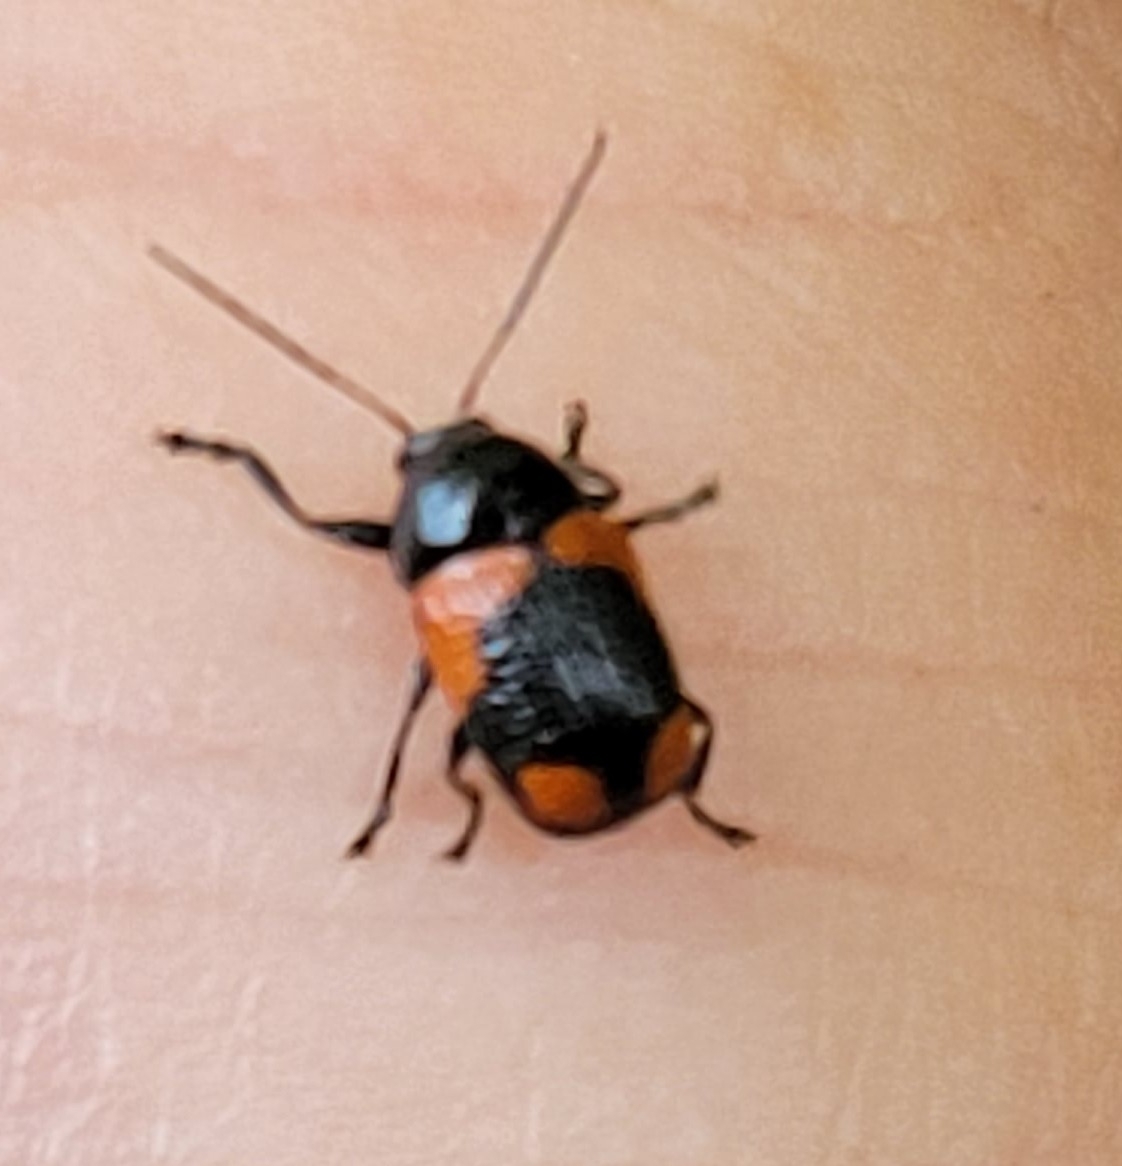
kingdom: Animalia
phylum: Arthropoda
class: Insecta
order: Coleoptera
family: Chrysomelidae
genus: Cryptocephalus
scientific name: Cryptocephalus notatus
